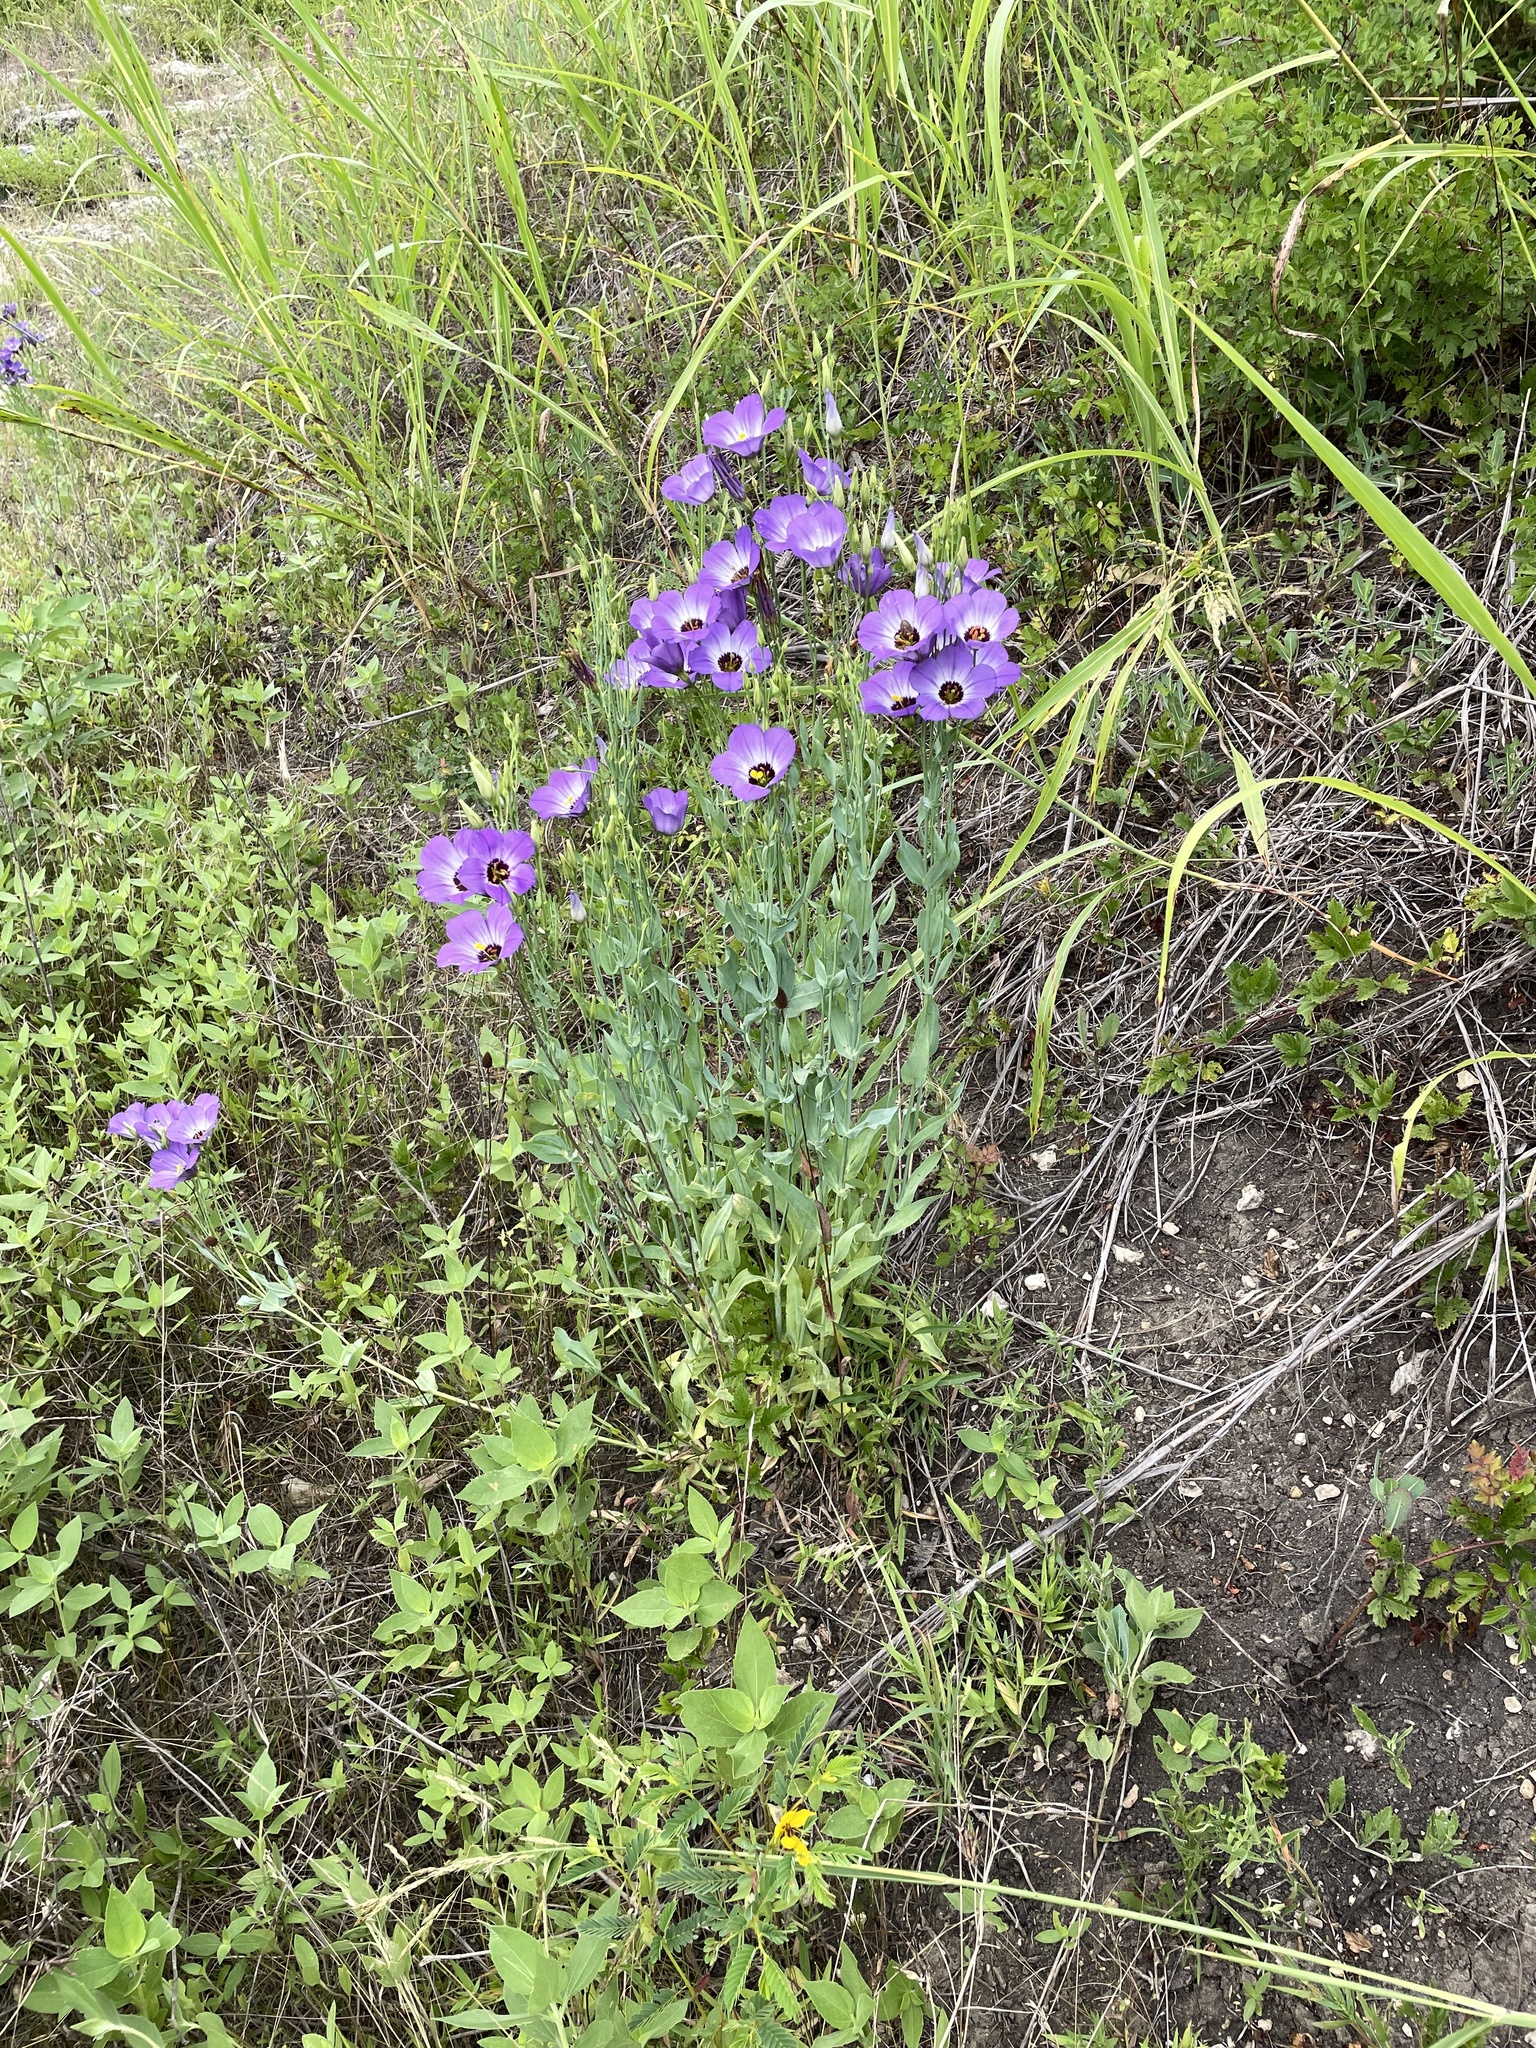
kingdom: Plantae
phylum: Tracheophyta
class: Magnoliopsida
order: Gentianales
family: Gentianaceae
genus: Eustoma
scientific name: Eustoma russellianum
